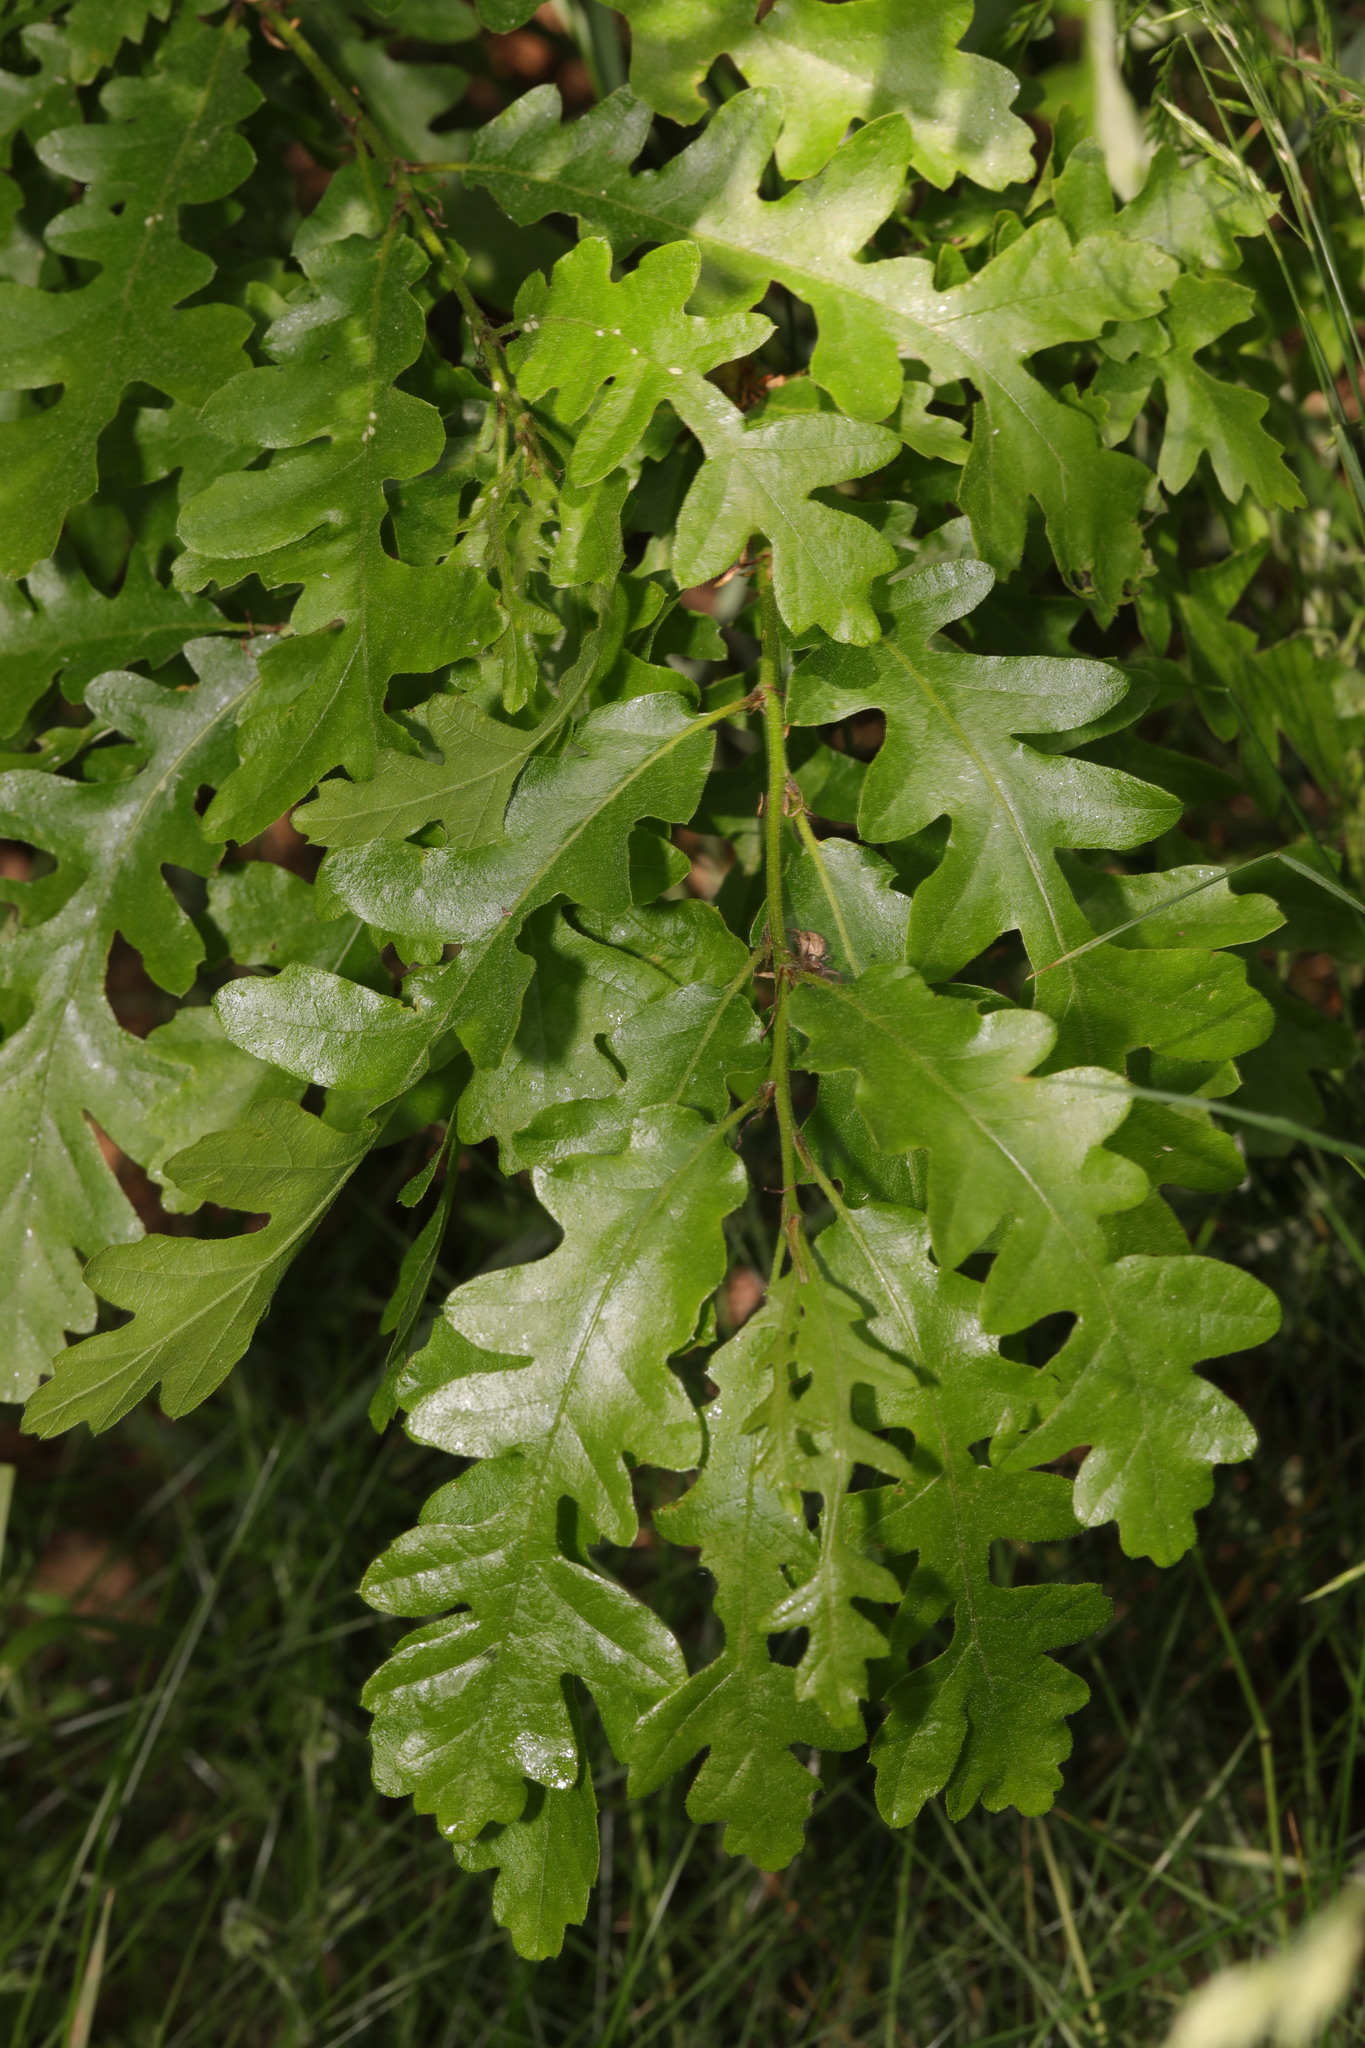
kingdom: Plantae
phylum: Tracheophyta
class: Magnoliopsida
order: Fagales
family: Fagaceae
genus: Quercus
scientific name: Quercus cerris
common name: Turkey oak
